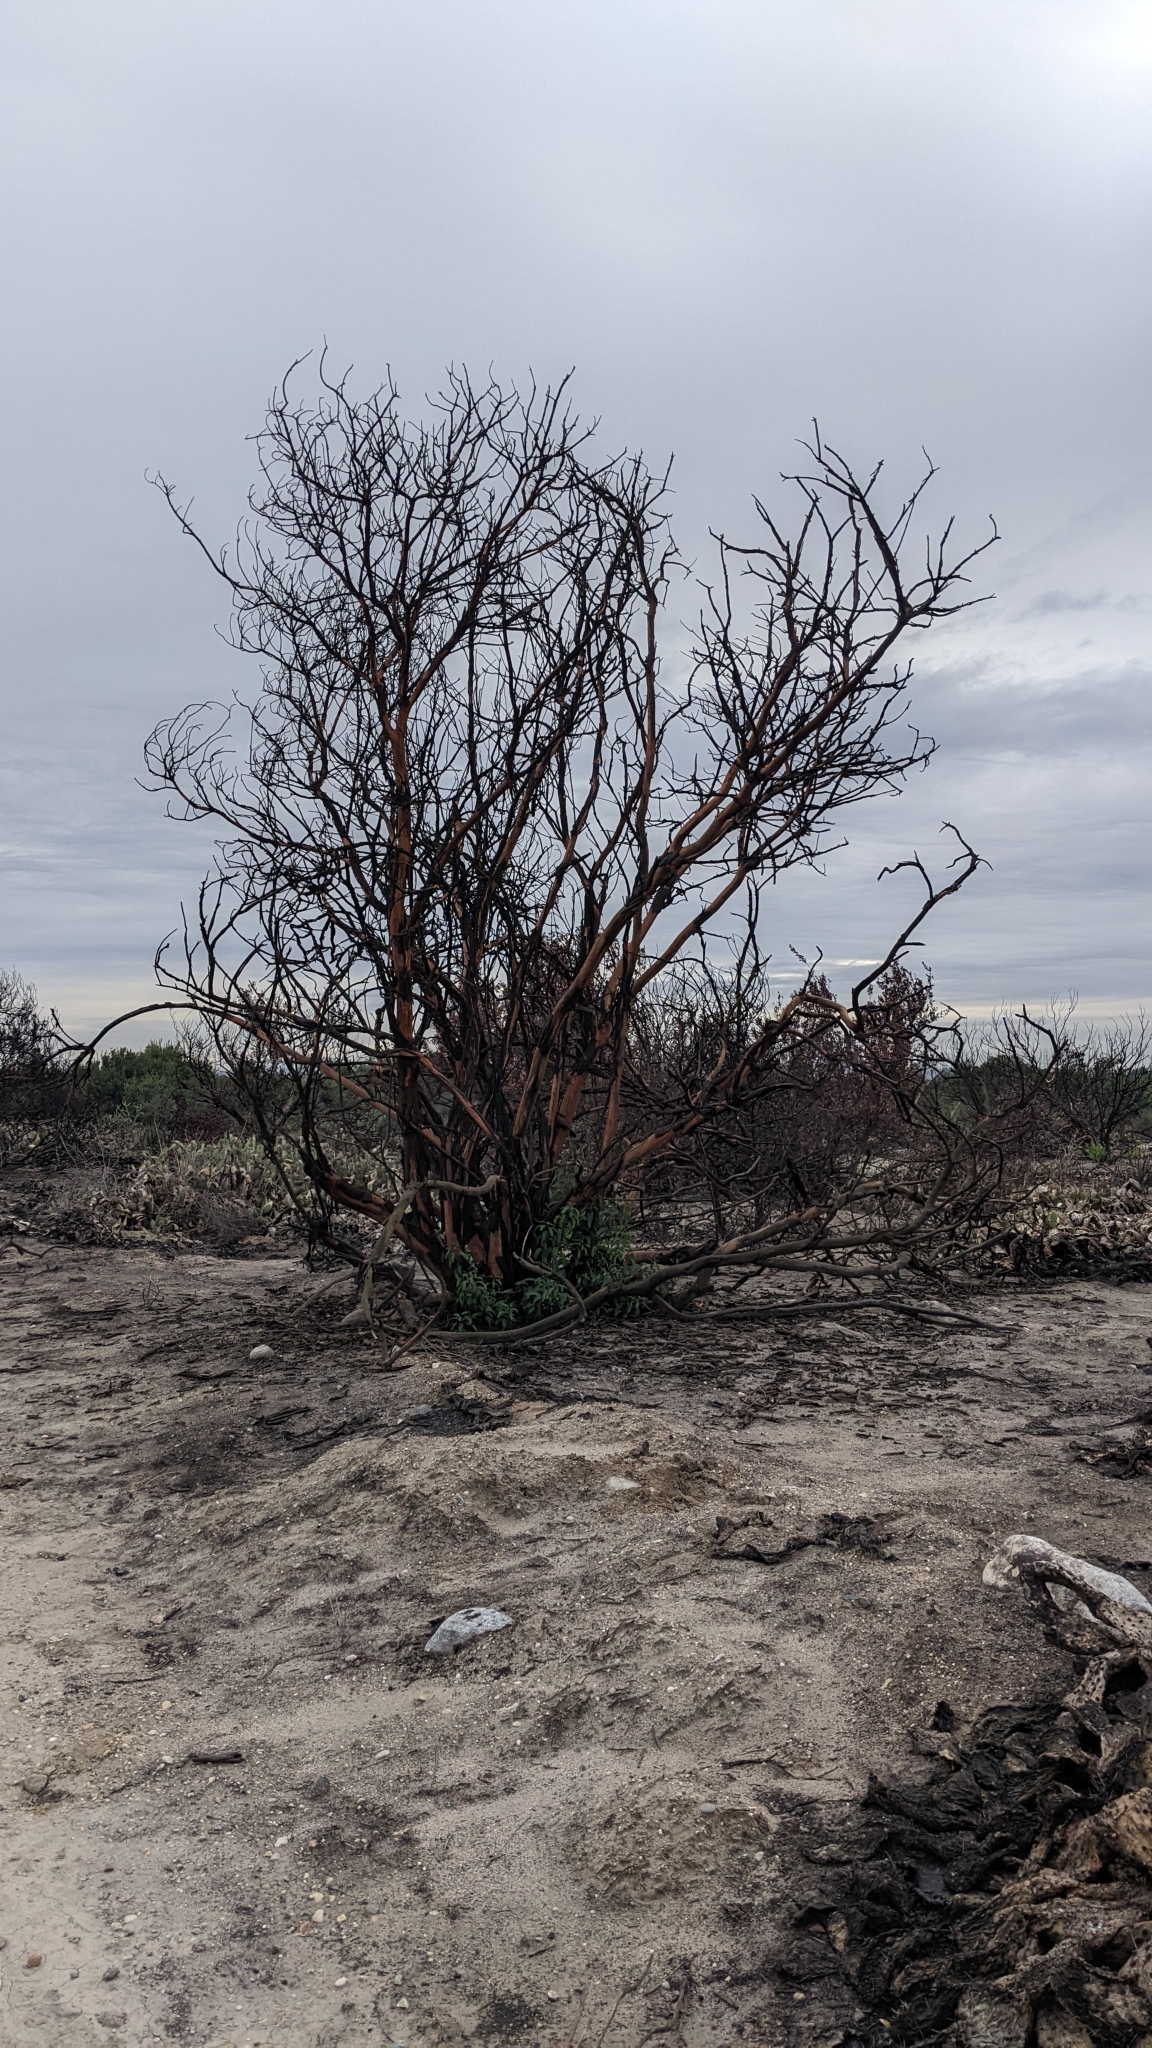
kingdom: Plantae
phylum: Tracheophyta
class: Magnoliopsida
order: Sapindales
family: Anacardiaceae
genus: Malosma
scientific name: Malosma laurina
